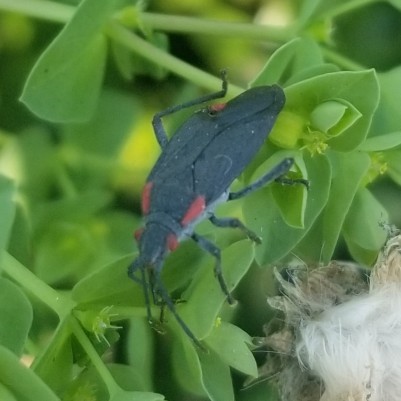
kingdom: Animalia
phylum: Arthropoda
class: Insecta
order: Hemiptera
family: Rhopalidae
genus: Jadera
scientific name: Jadera haematoloma
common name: Red-shouldered bug
